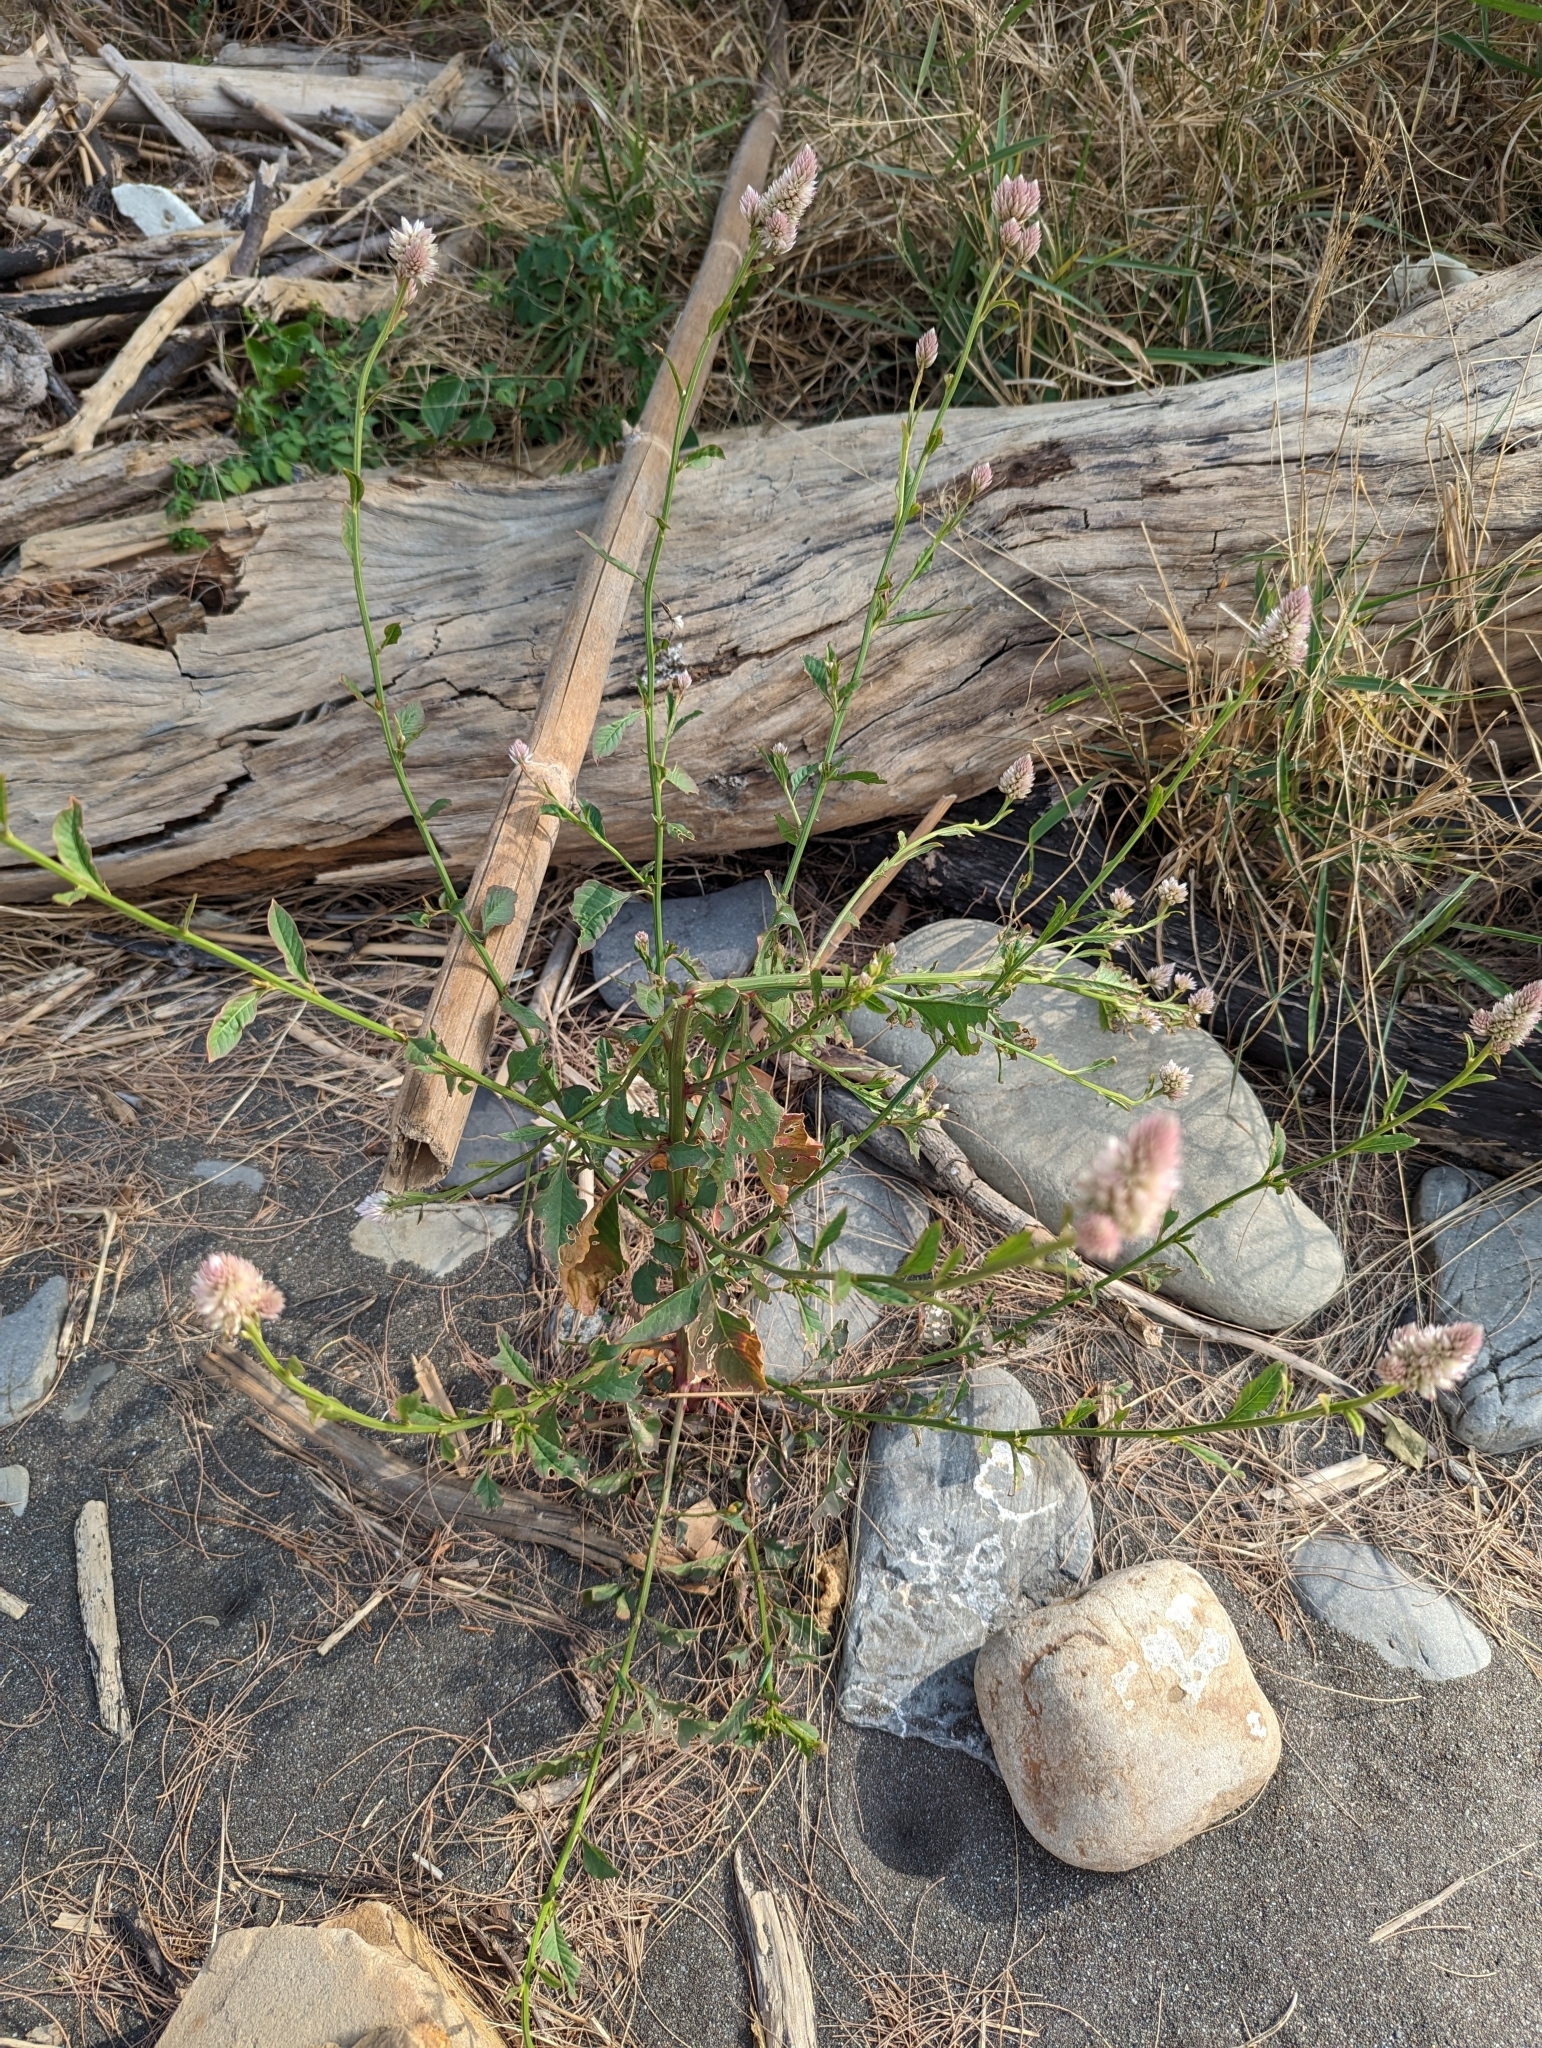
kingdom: Plantae
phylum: Tracheophyta
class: Magnoliopsida
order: Caryophyllales
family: Amaranthaceae
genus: Celosia
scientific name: Celosia argentea
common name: Feather cockscomb
